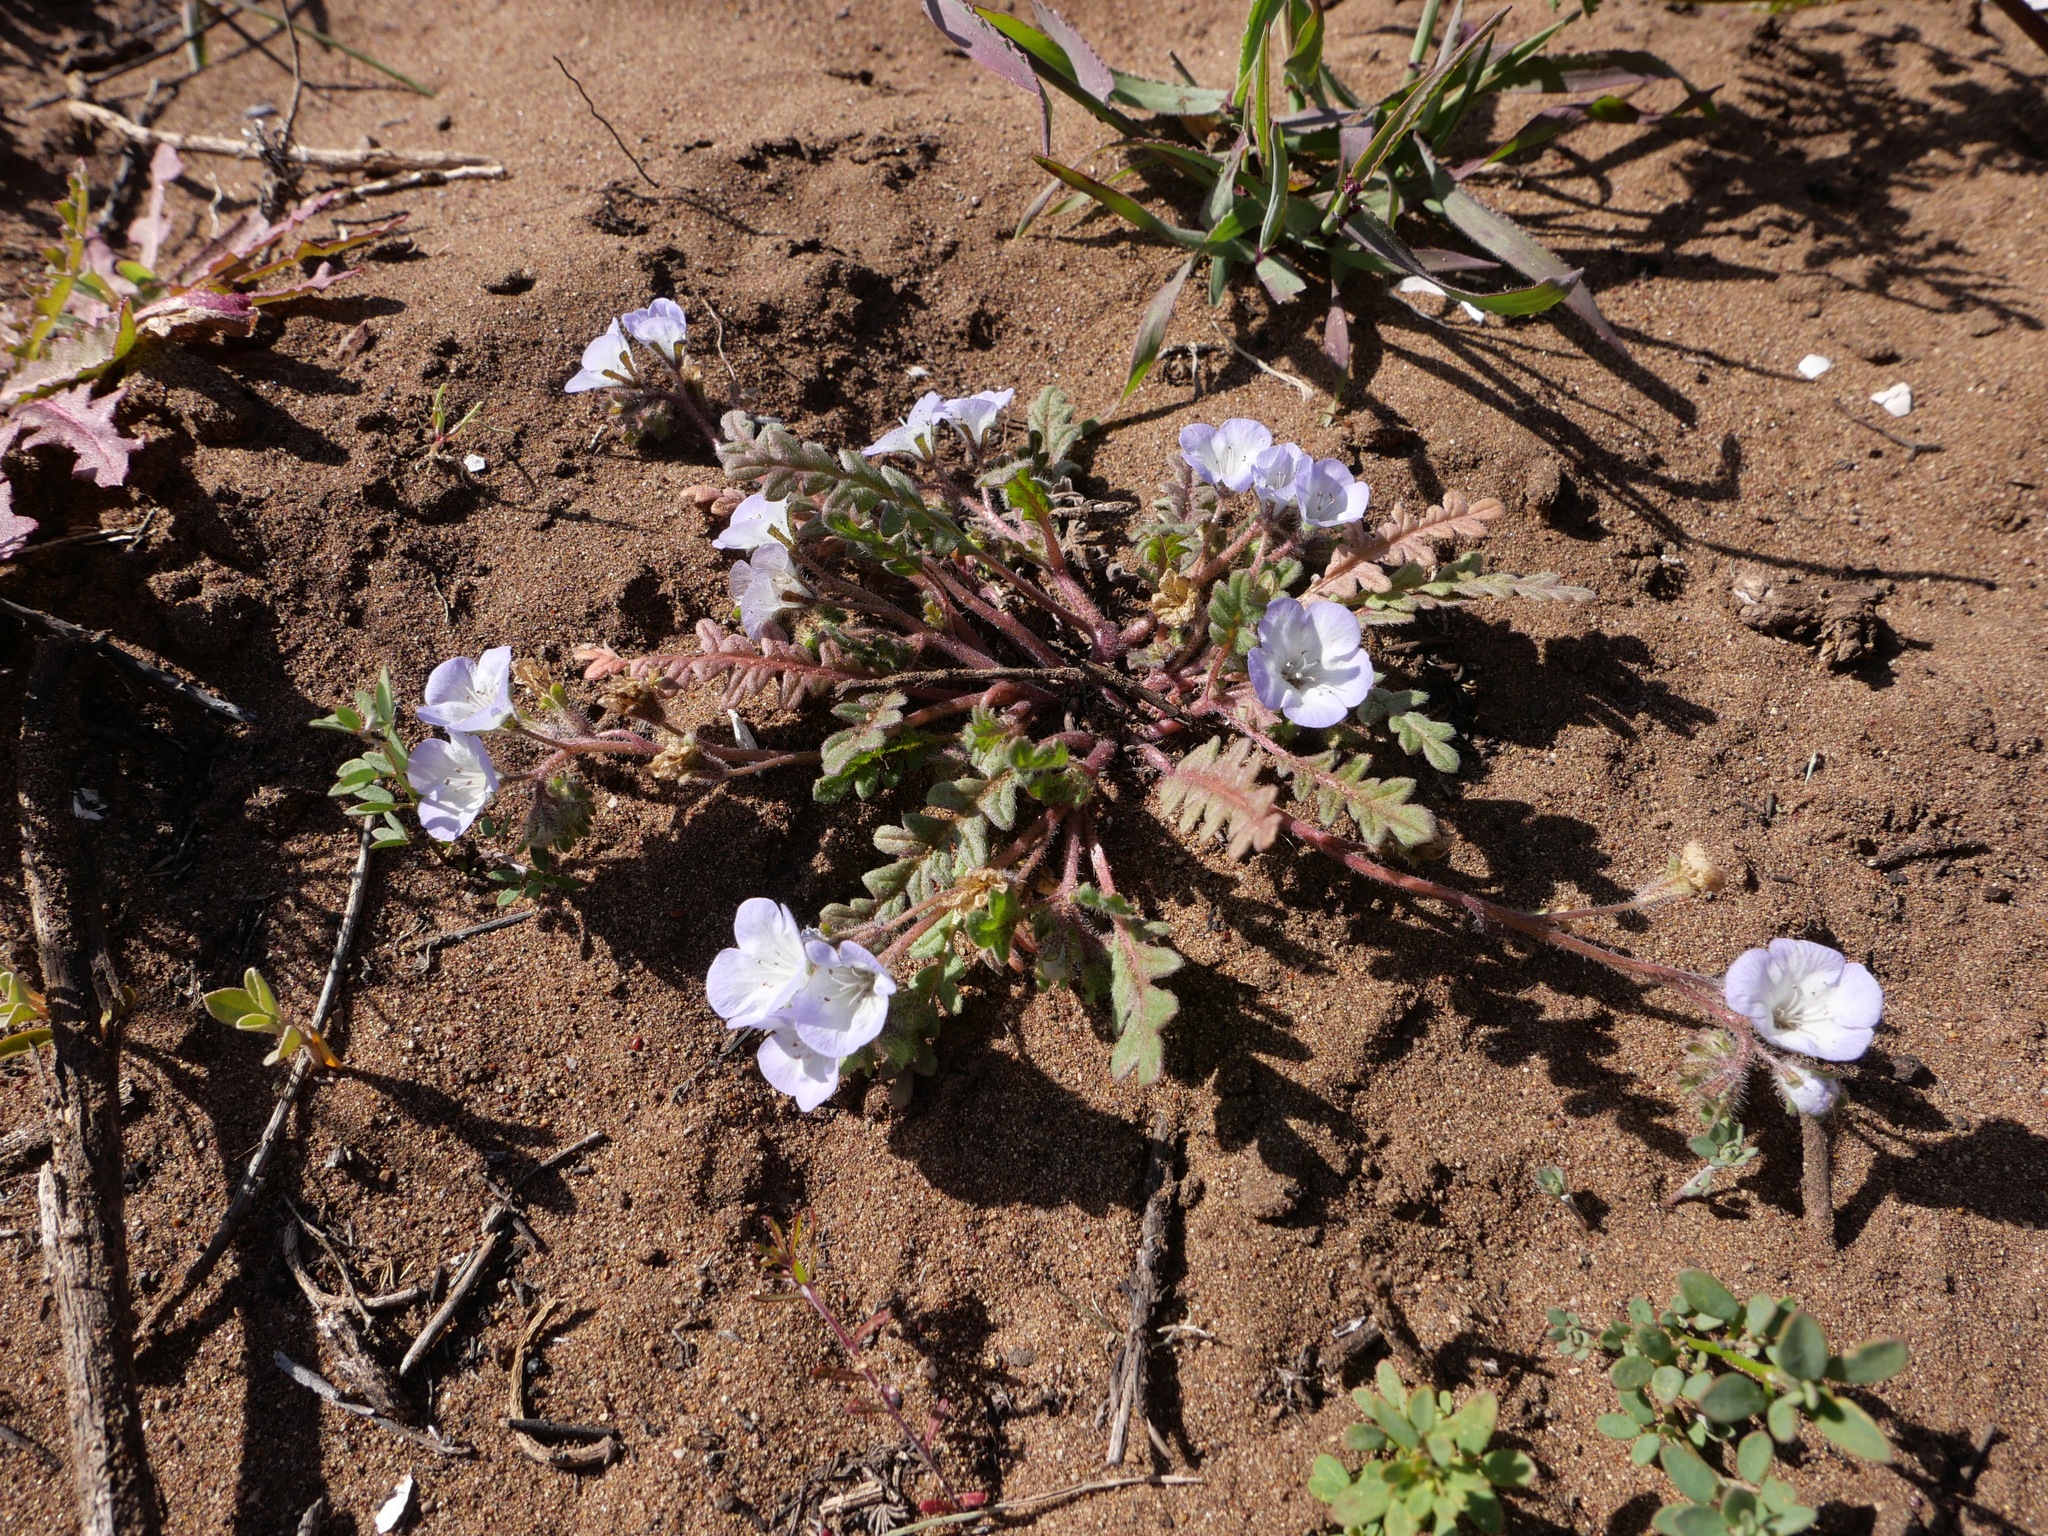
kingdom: Plantae
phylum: Tracheophyta
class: Magnoliopsida
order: Boraginales
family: Hydrophyllaceae
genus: Phacelia
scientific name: Phacelia douglasii
